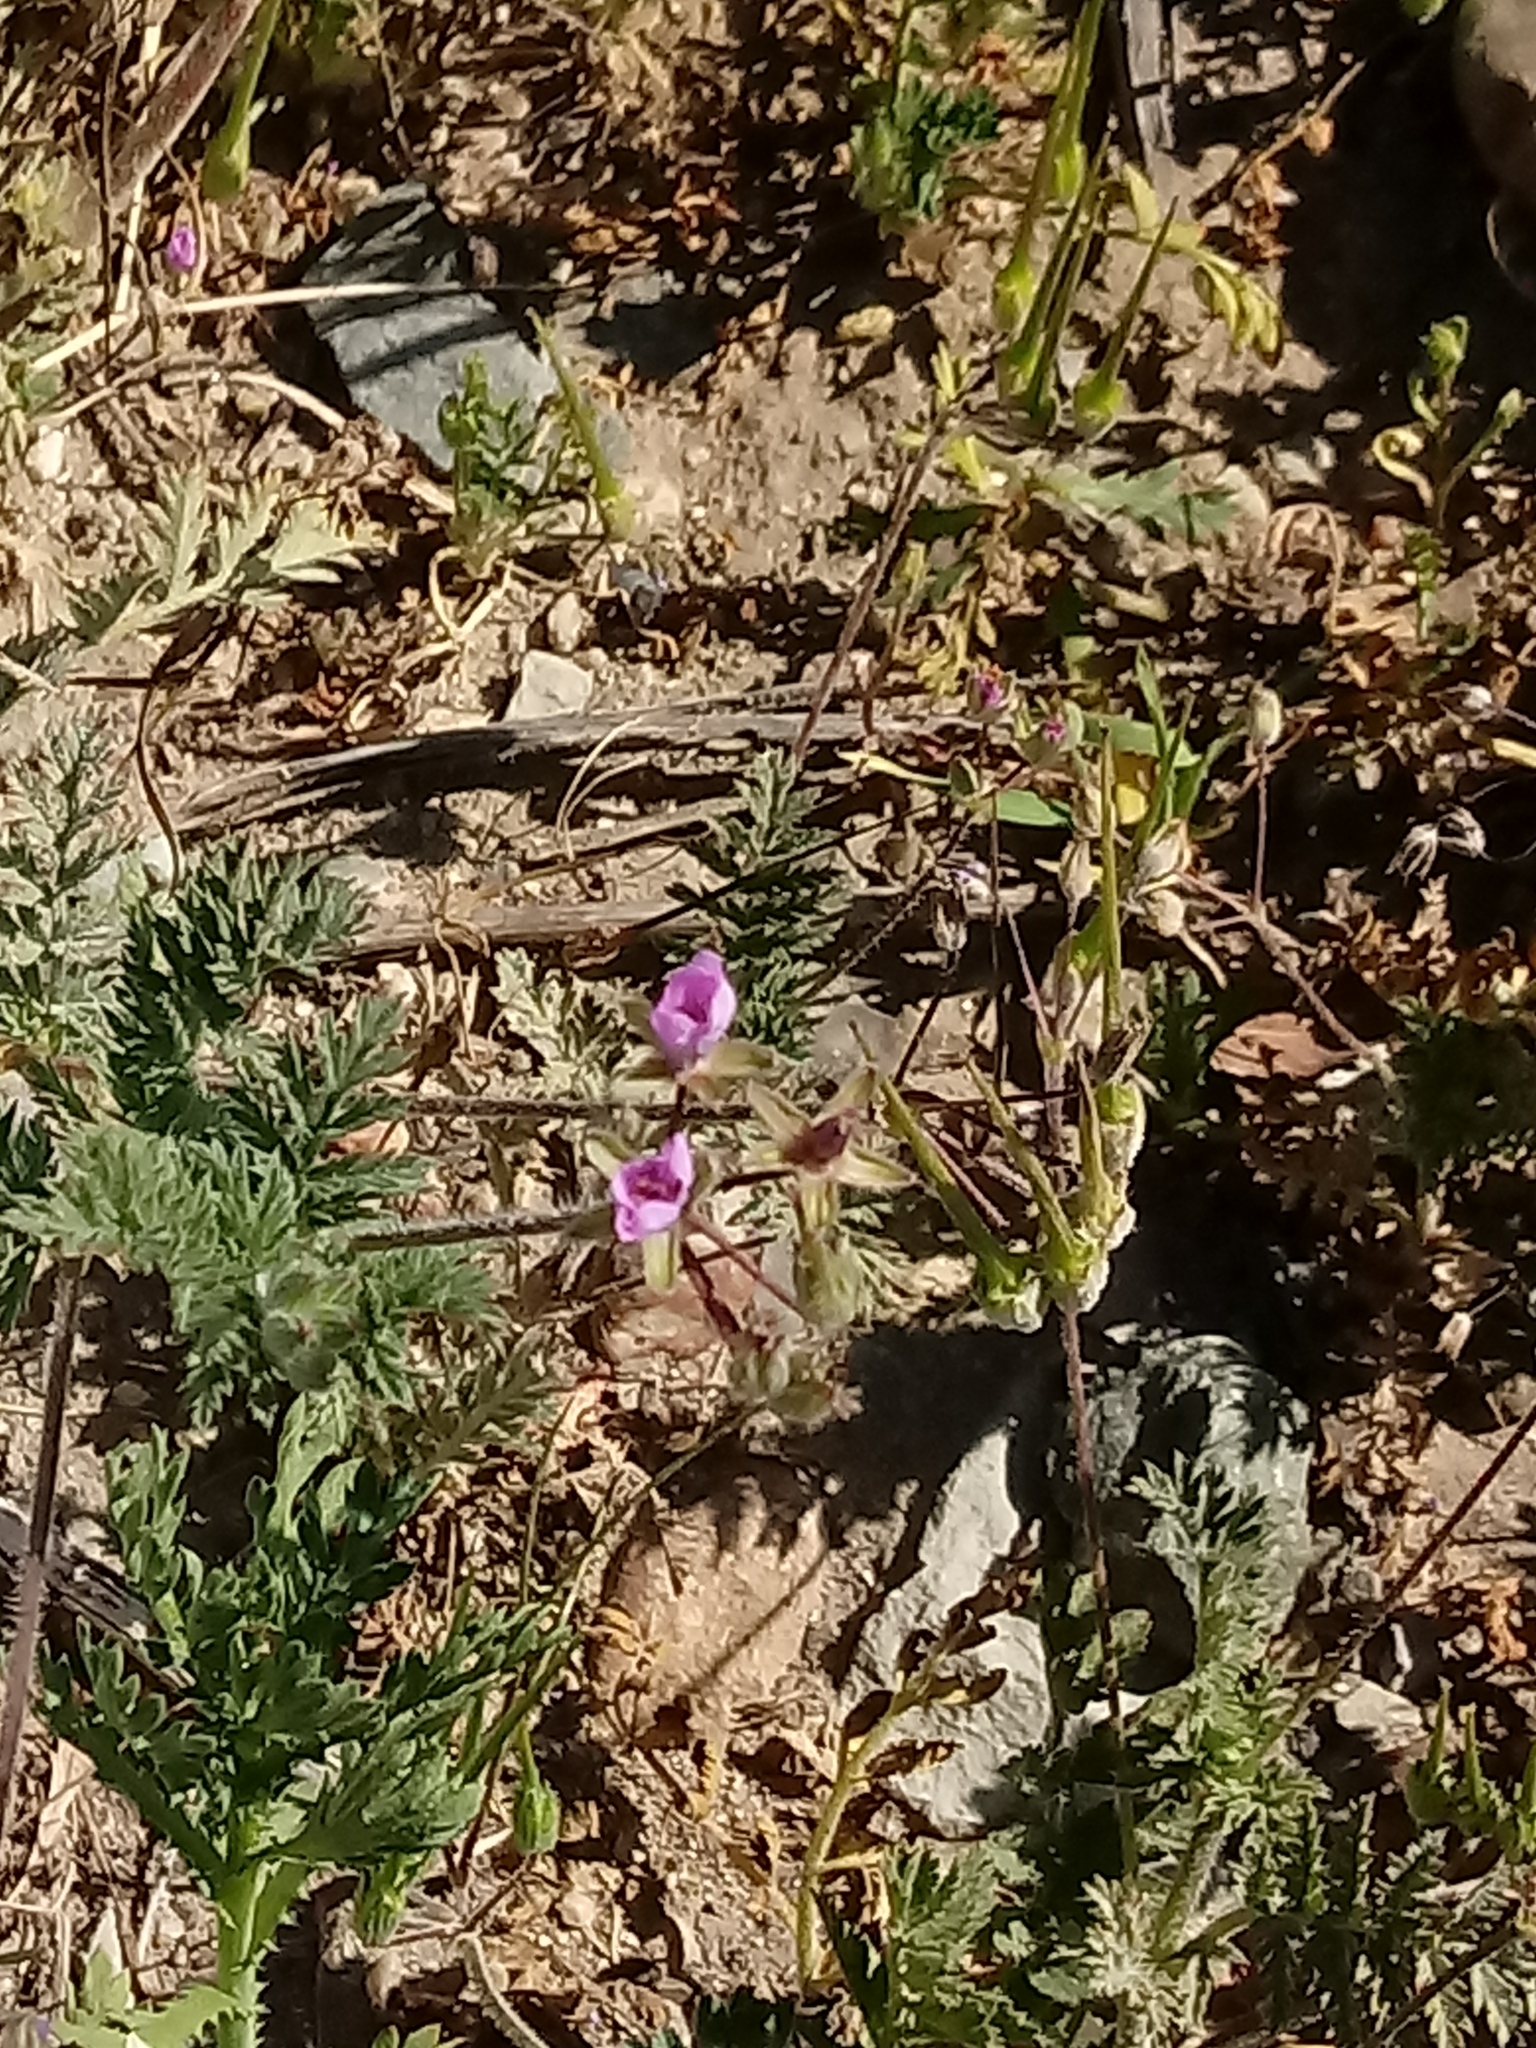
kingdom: Plantae
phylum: Tracheophyta
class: Magnoliopsida
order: Geraniales
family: Geraniaceae
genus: Erodium
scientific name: Erodium cicutarium
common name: Common stork's-bill
